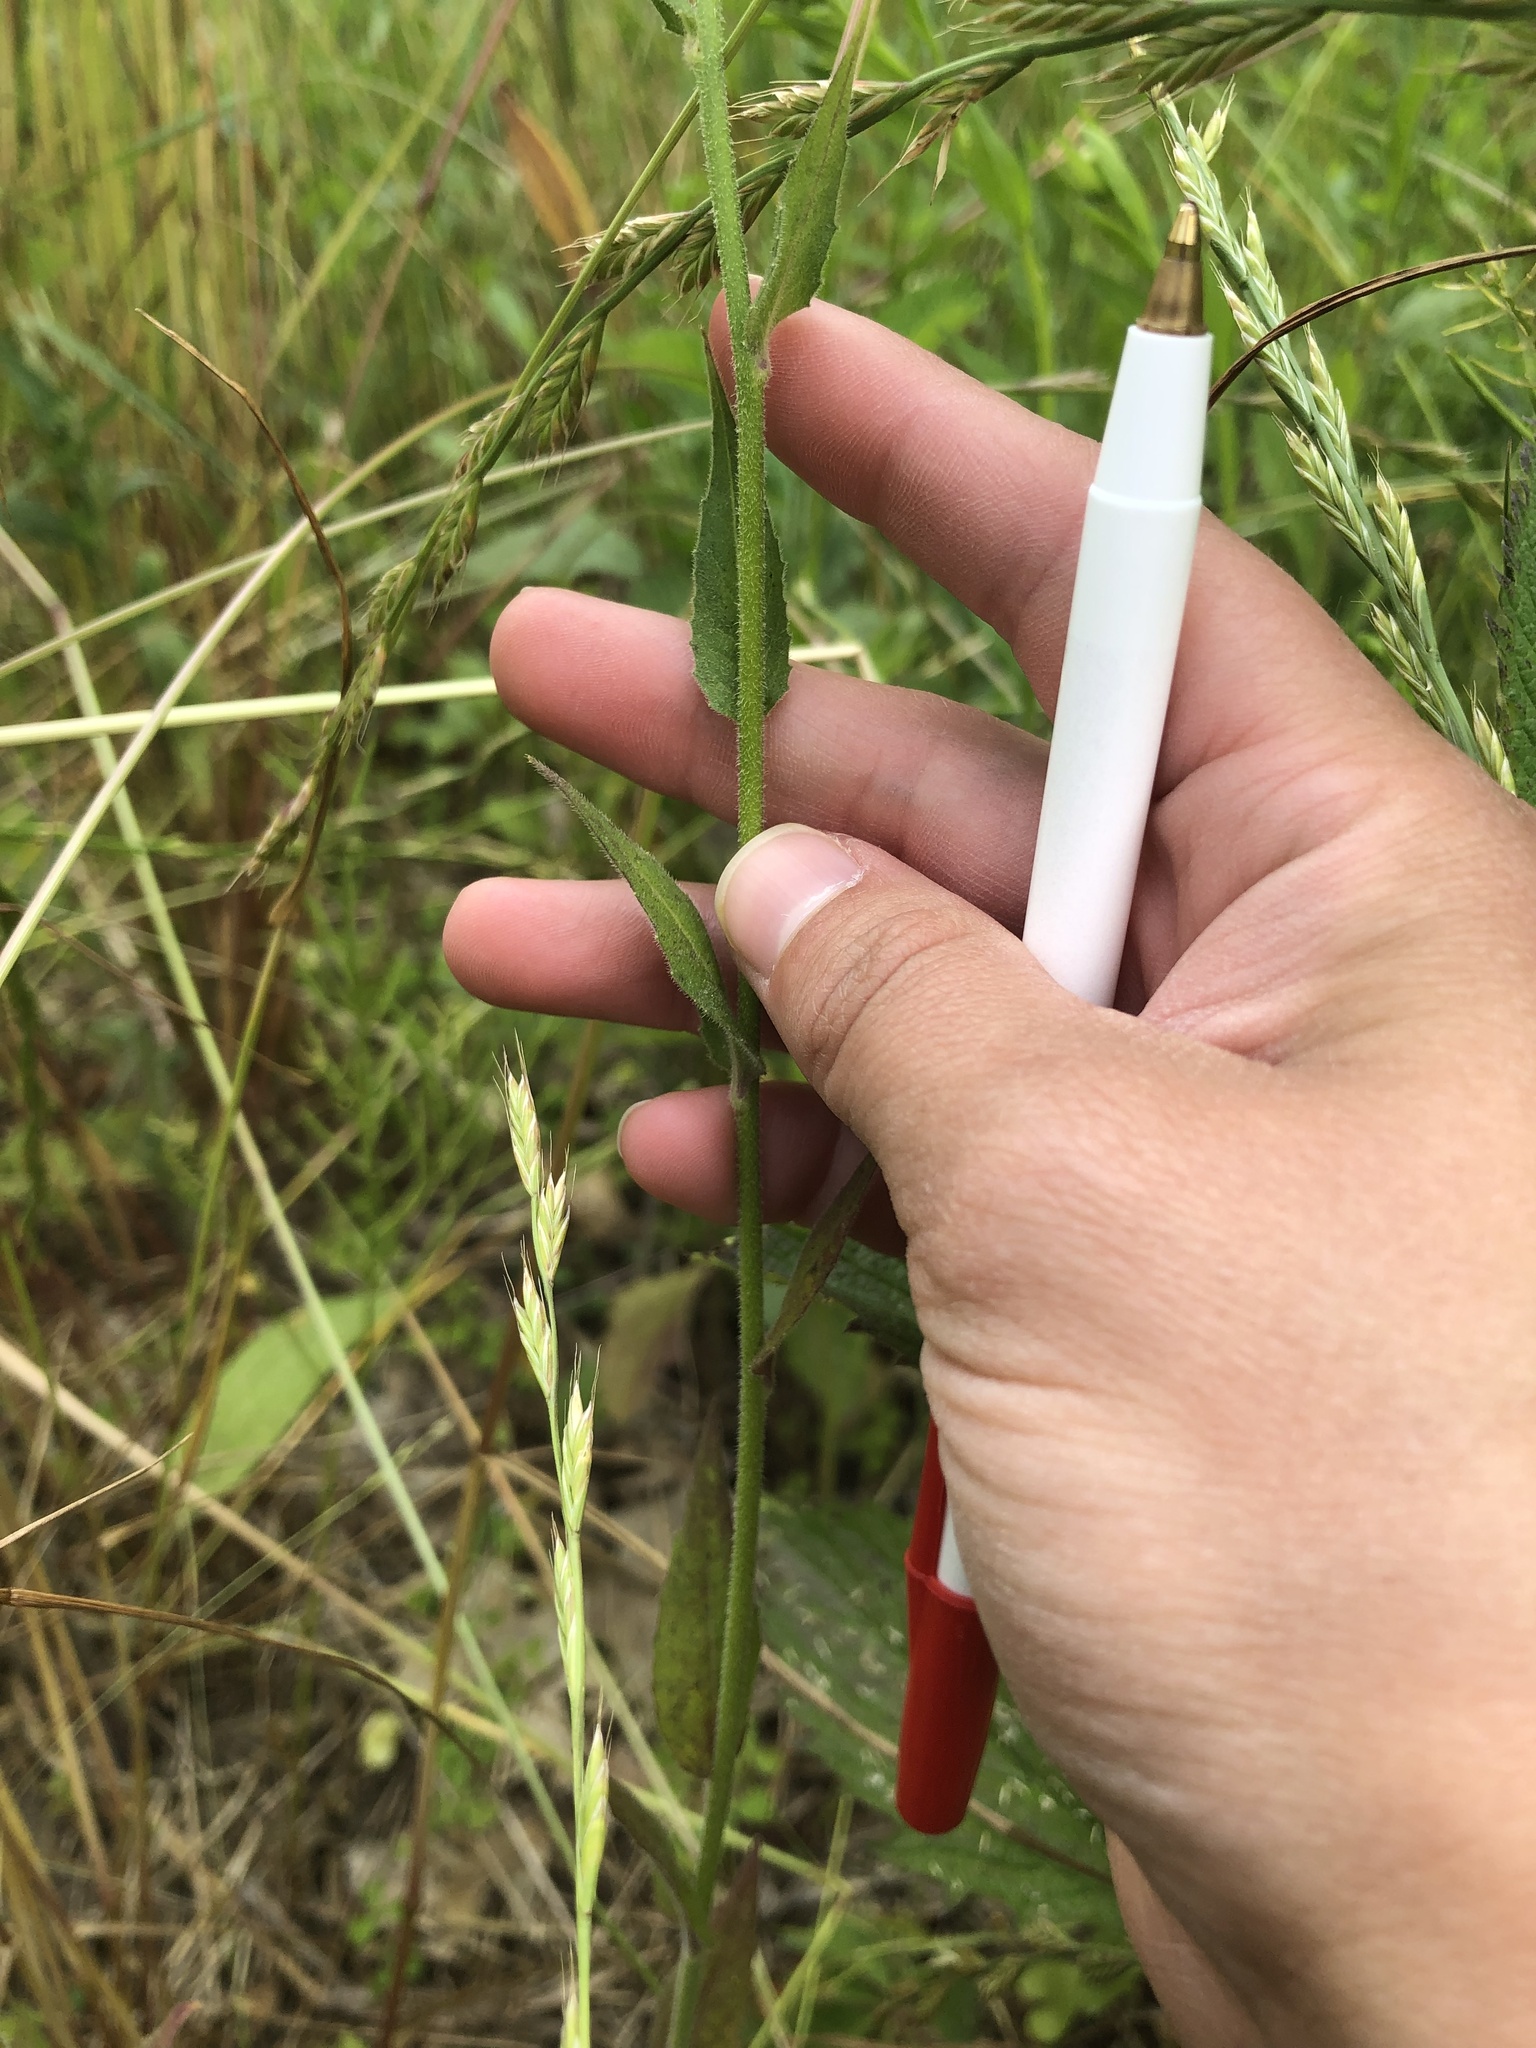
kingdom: Plantae
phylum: Tracheophyta
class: Magnoliopsida
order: Brassicales
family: Brassicaceae
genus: Hesperis
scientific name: Hesperis matronalis
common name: Dame's-violet
